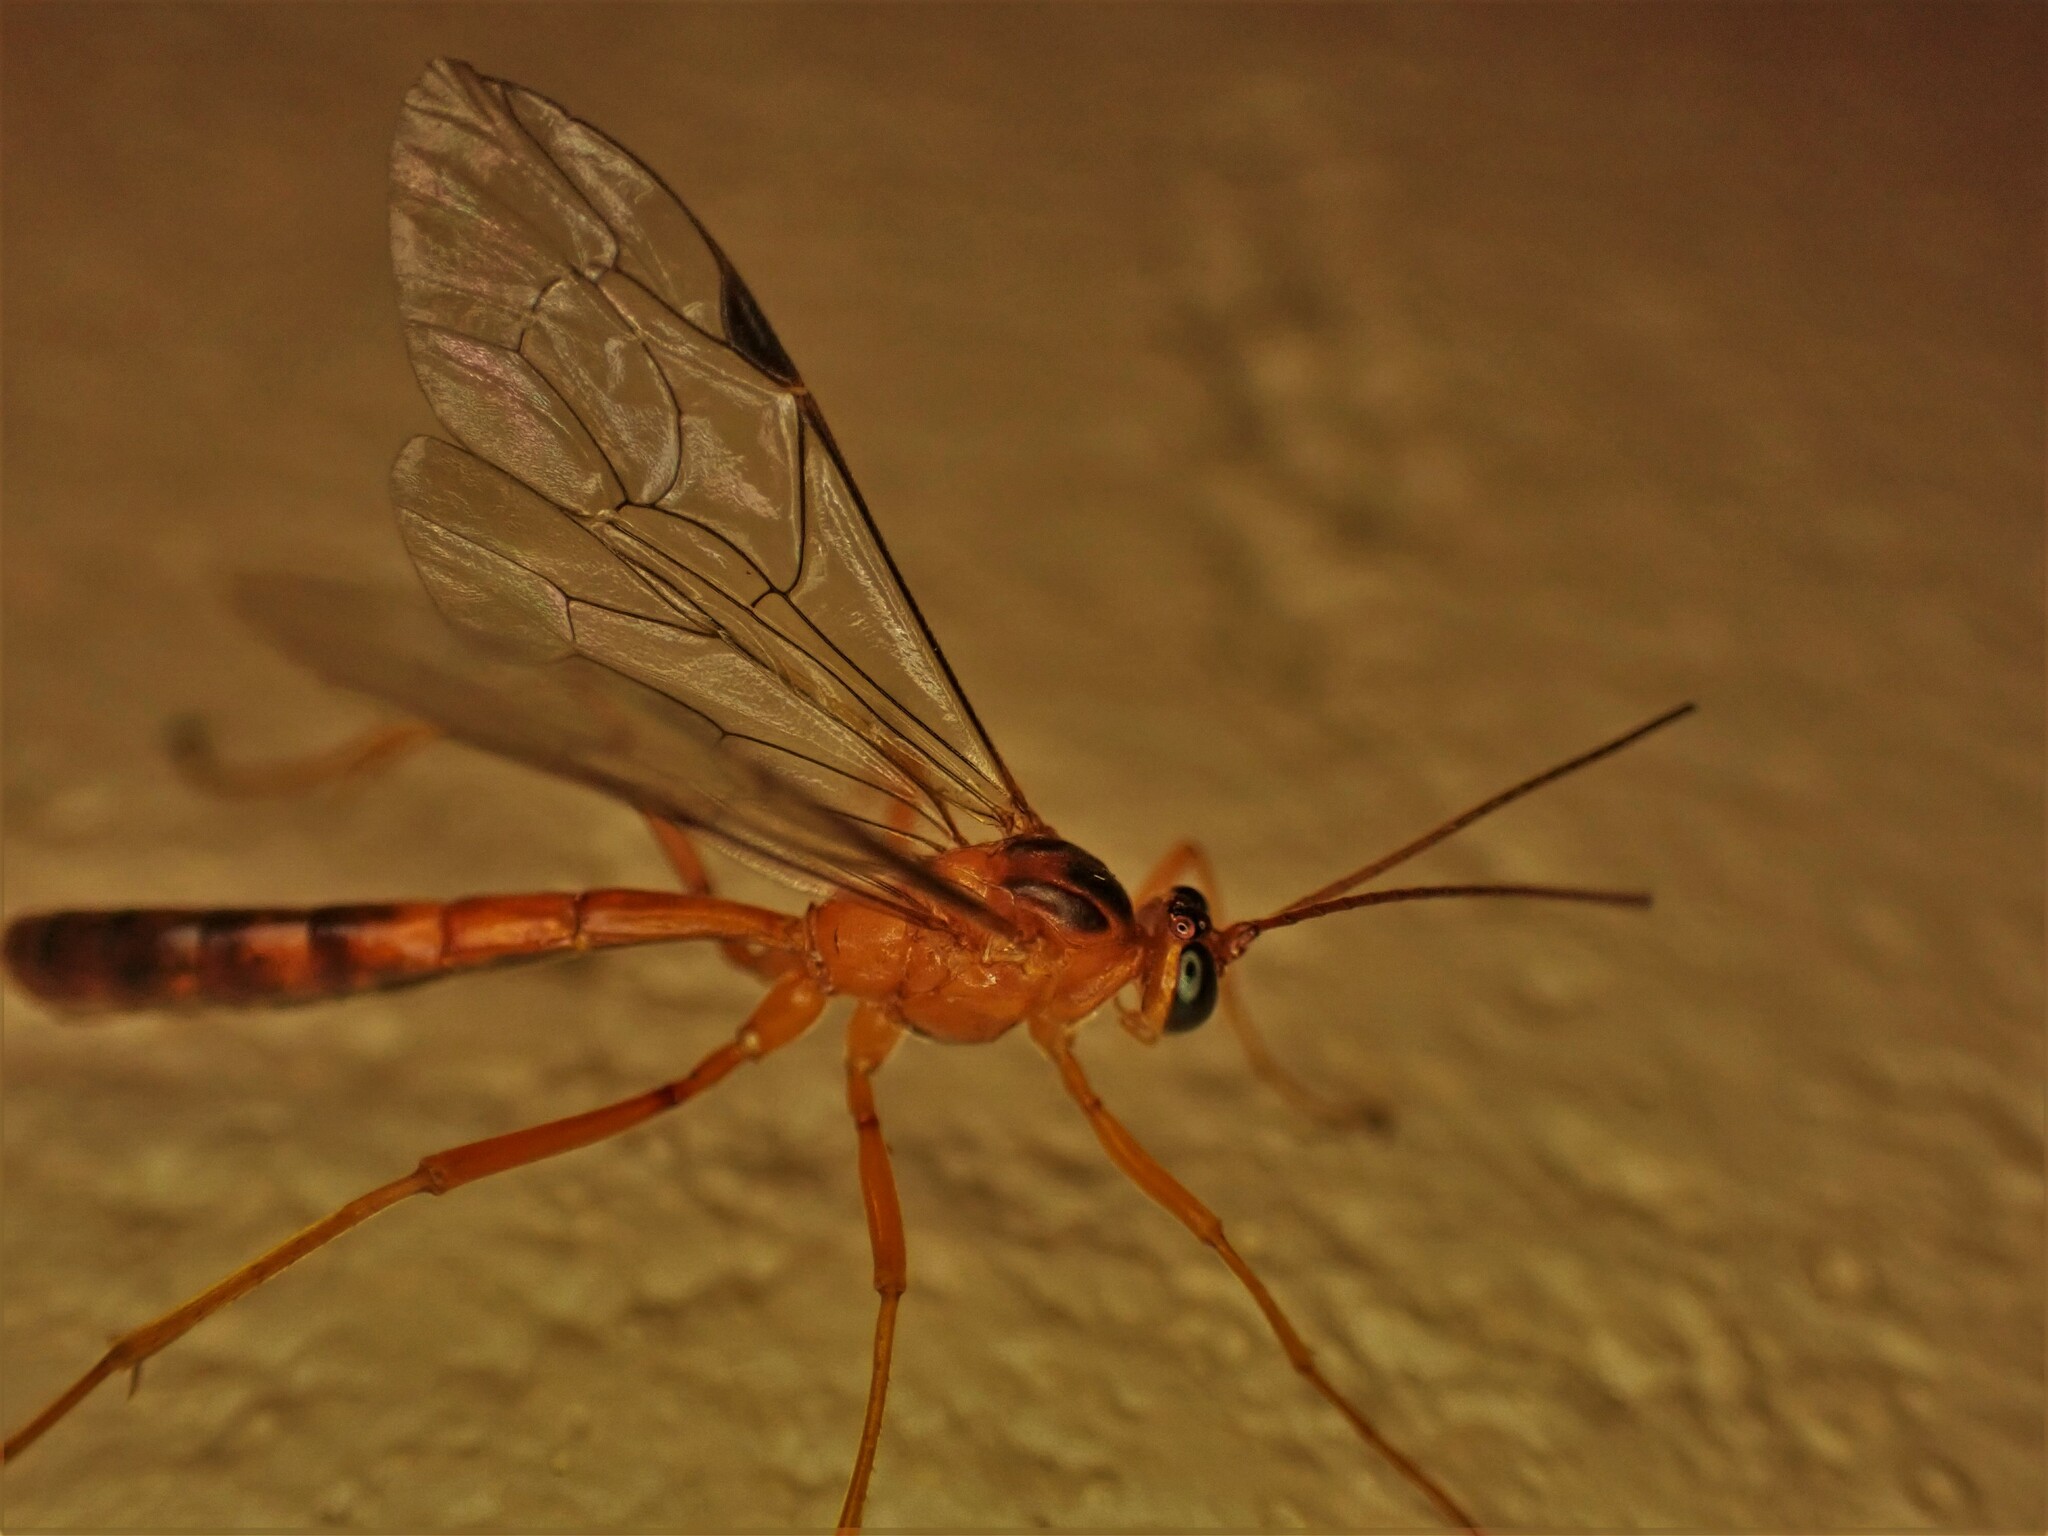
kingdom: Animalia
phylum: Arthropoda
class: Insecta
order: Hymenoptera
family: Ichneumonidae
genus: Netelia
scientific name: Netelia ephippiata
